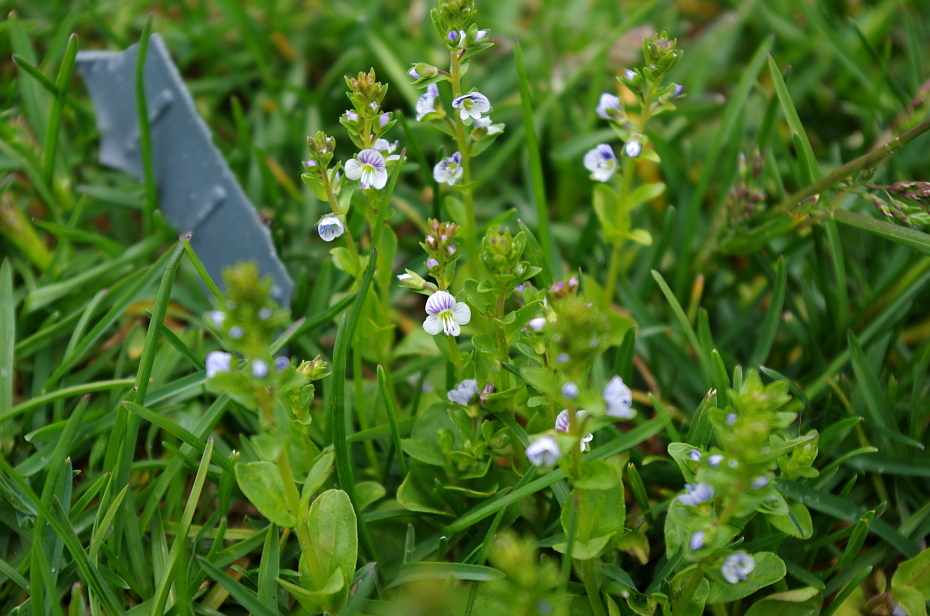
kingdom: Plantae
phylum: Tracheophyta
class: Magnoliopsida
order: Lamiales
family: Plantaginaceae
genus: Veronica
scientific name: Veronica serpyllifolia
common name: Thyme-leaved speedwell
